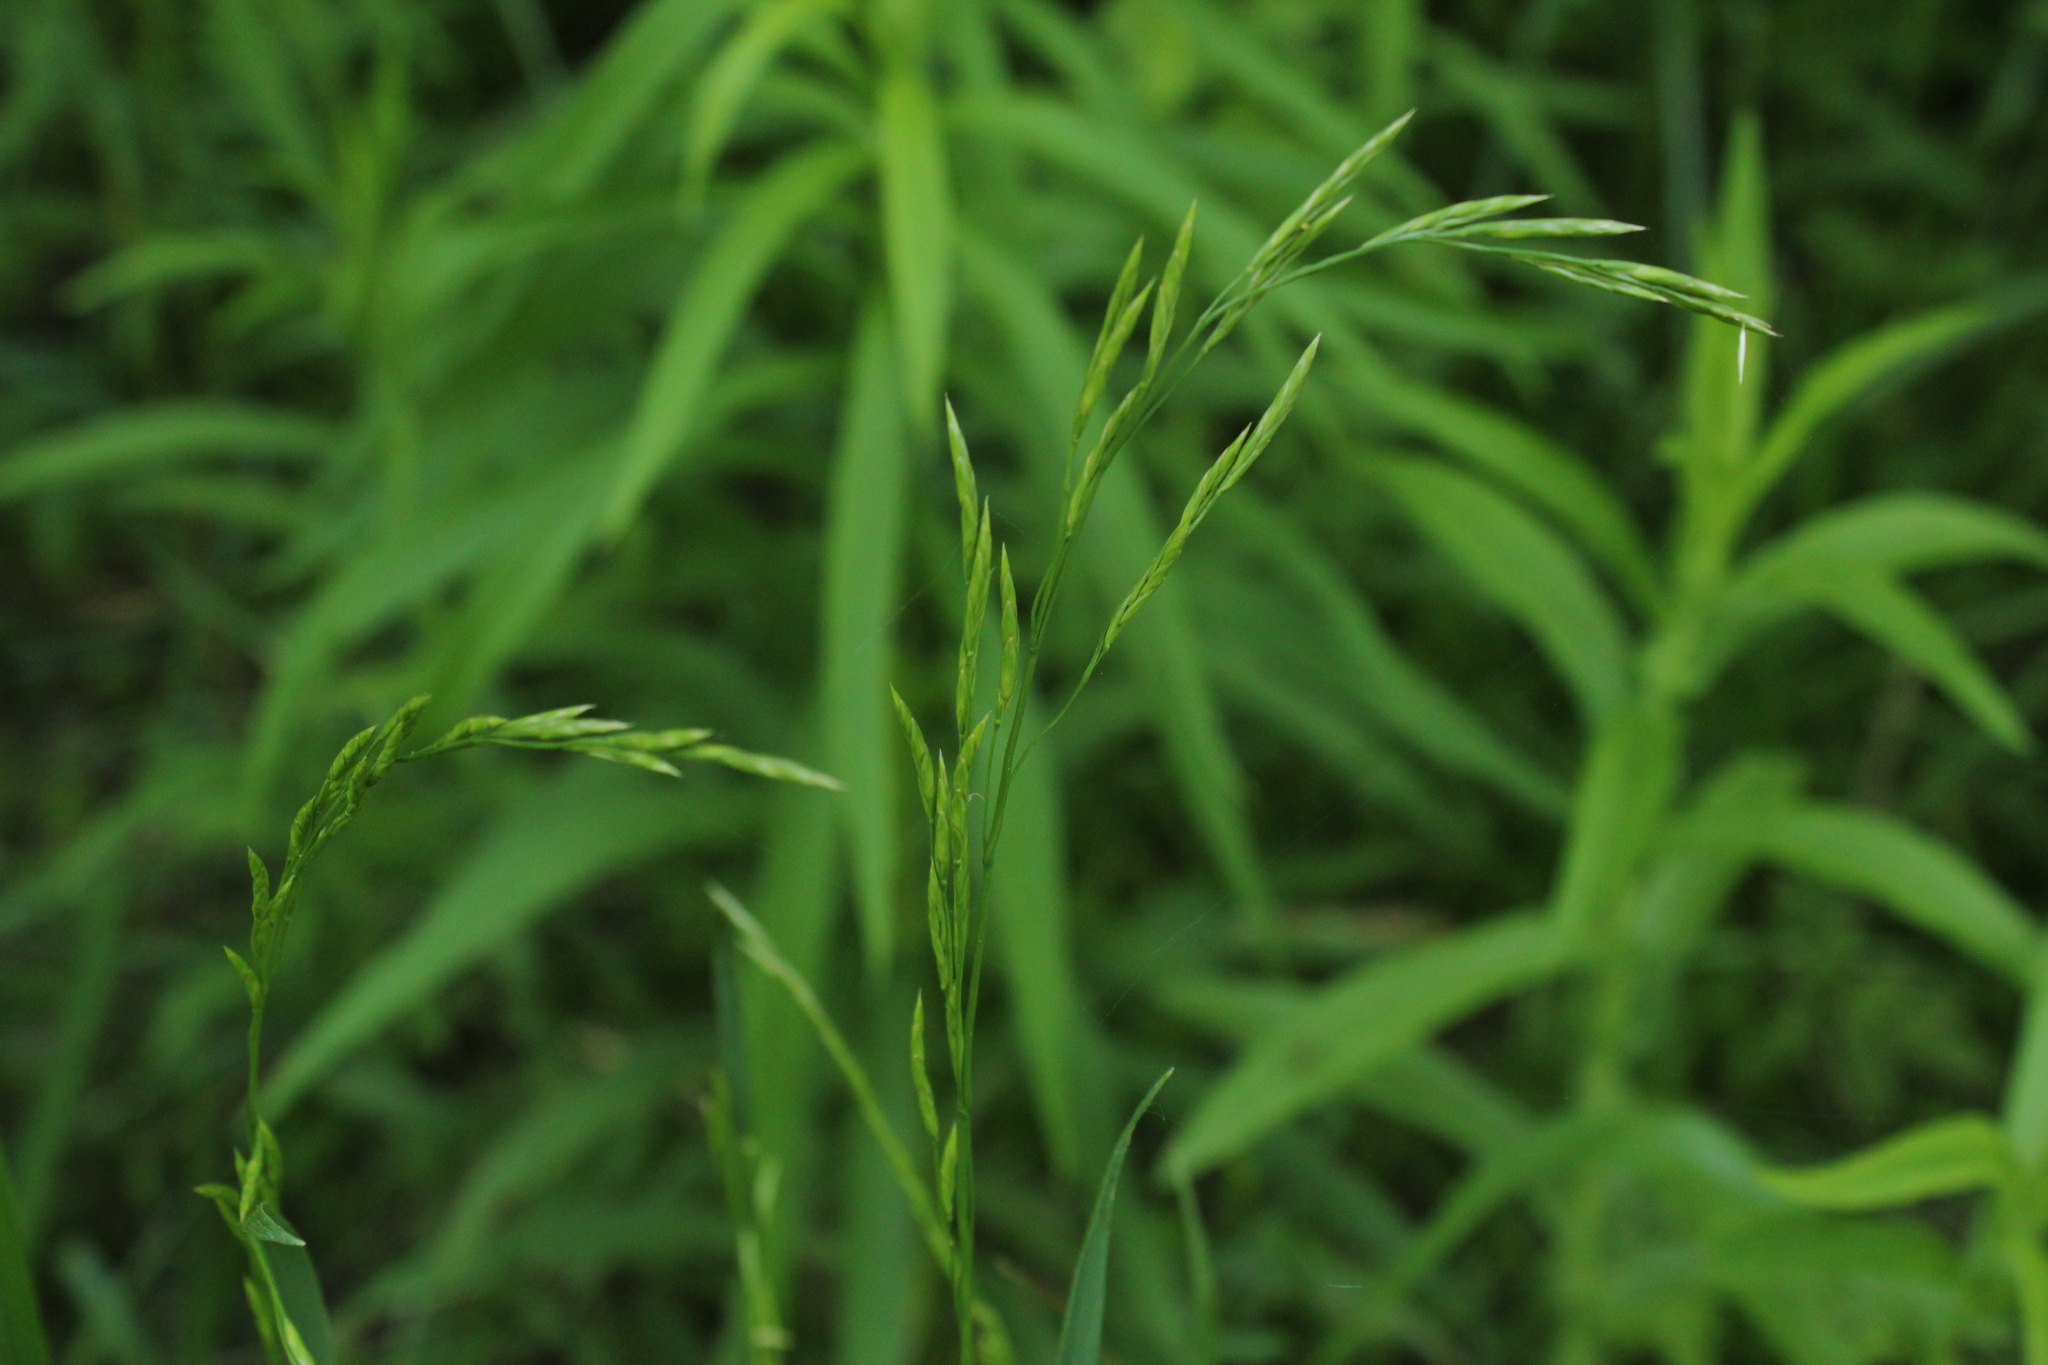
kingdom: Plantae
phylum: Tracheophyta
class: Liliopsida
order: Poales
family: Poaceae
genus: Bromus
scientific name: Bromus inermis
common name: Smooth brome
